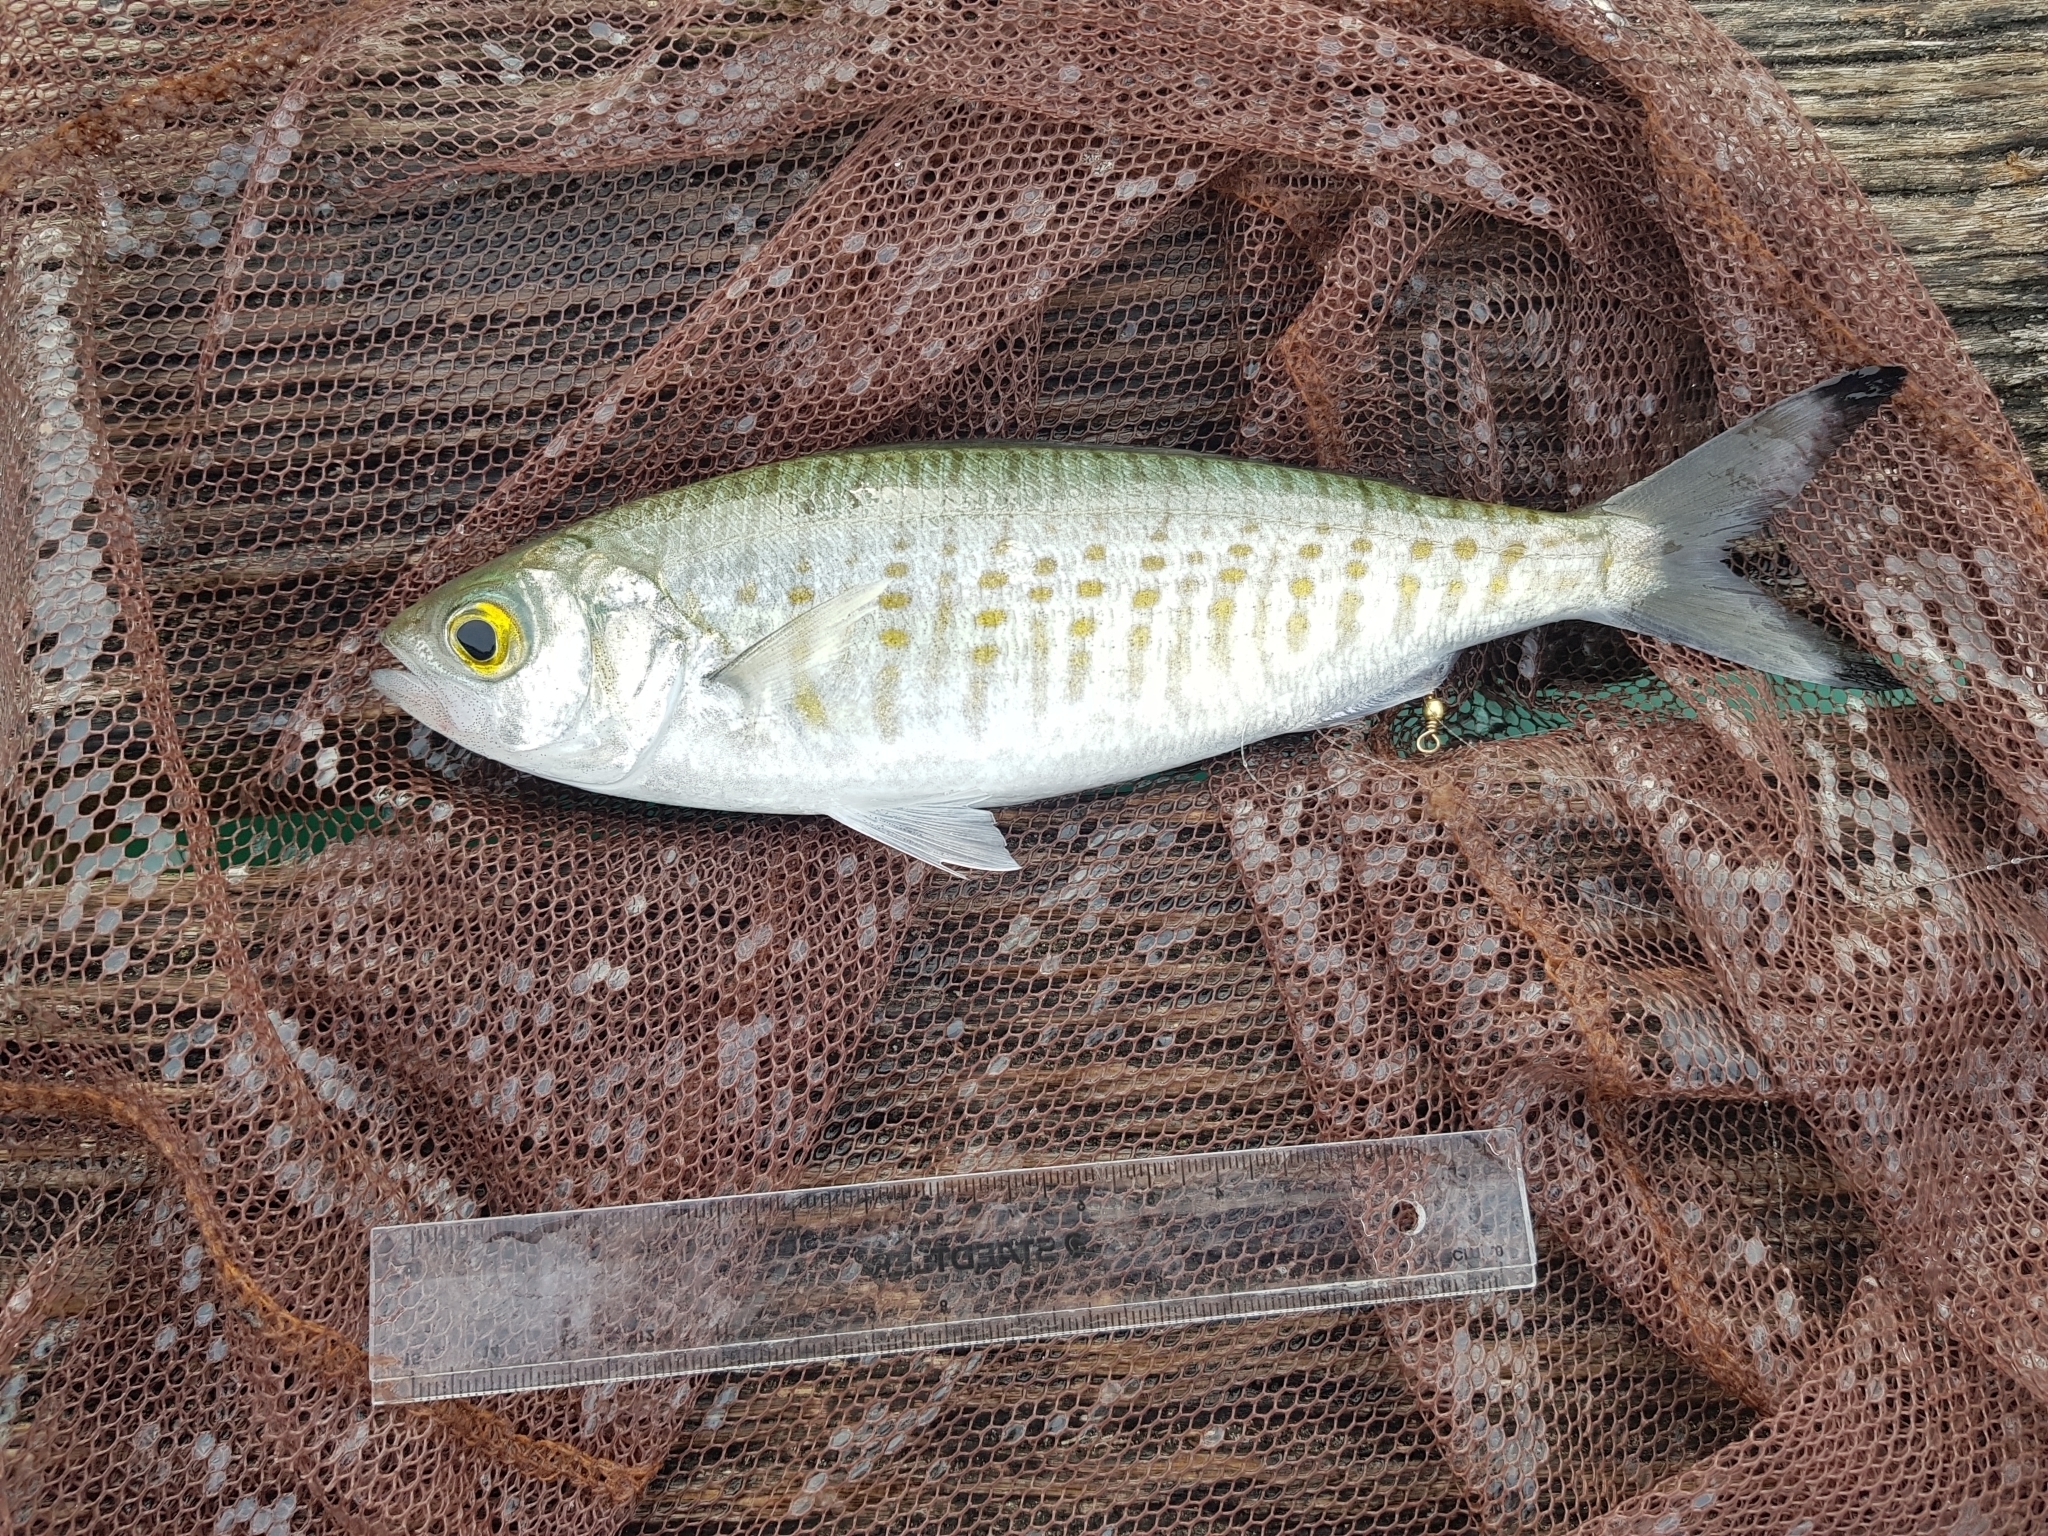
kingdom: Animalia
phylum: Chordata
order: Perciformes
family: Arripidae
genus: Arripis
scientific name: Arripis georgianus
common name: Australian herring
